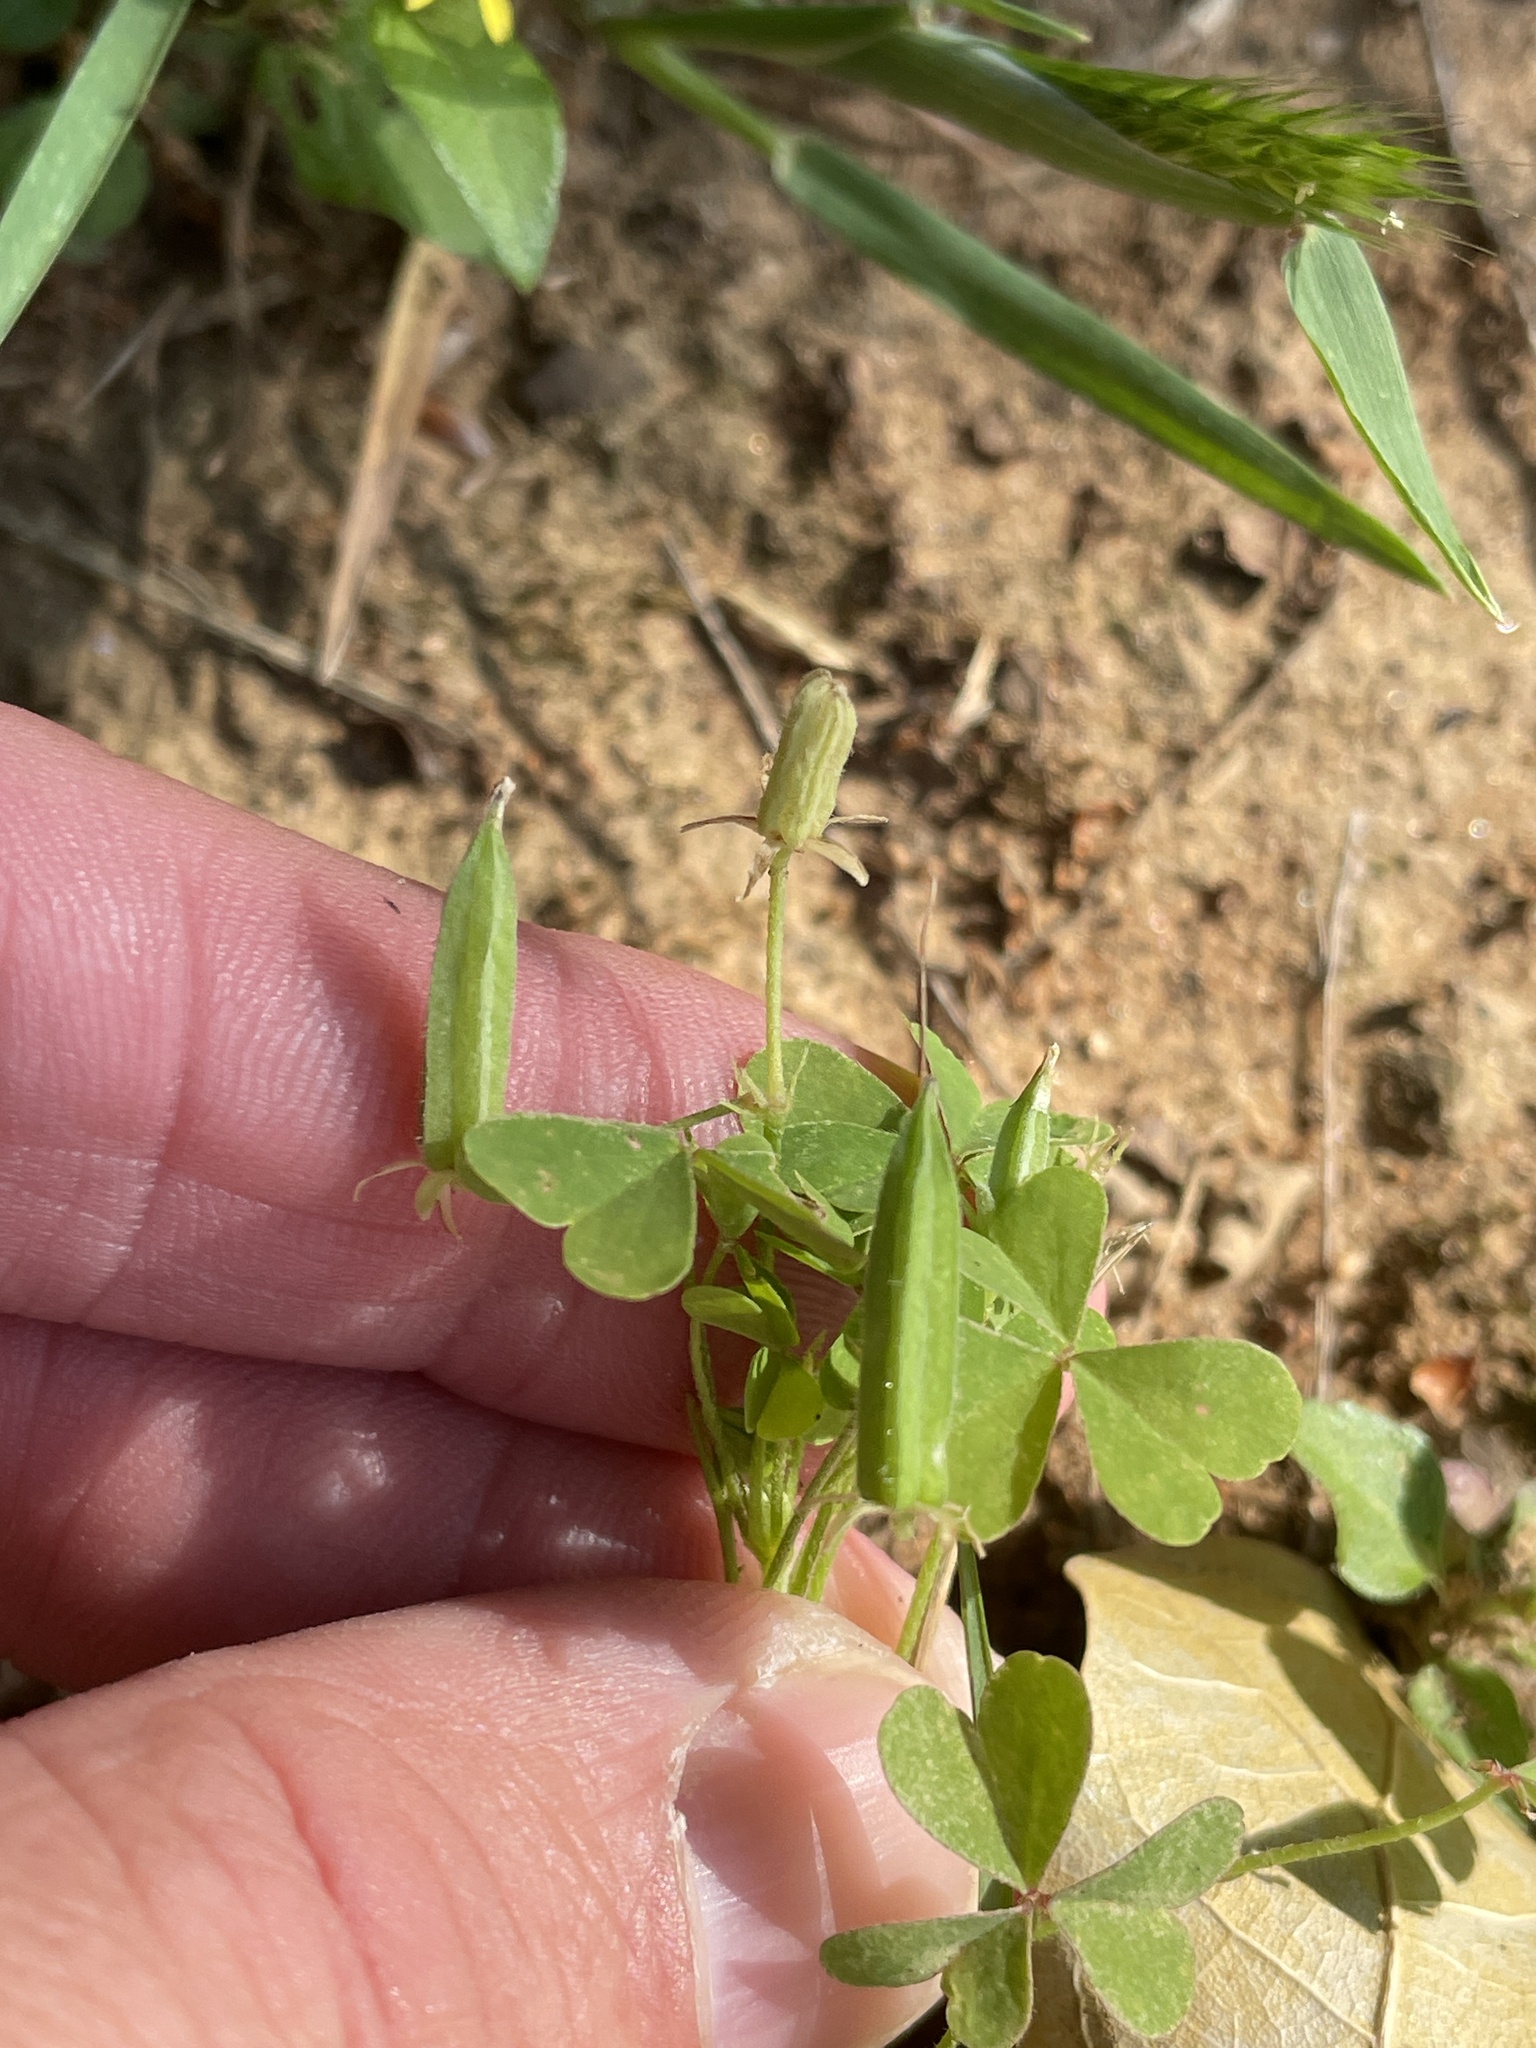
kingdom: Plantae
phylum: Tracheophyta
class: Magnoliopsida
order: Oxalidales
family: Oxalidaceae
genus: Oxalis
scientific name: Oxalis dillenii
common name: Sussex yellow-sorrel
